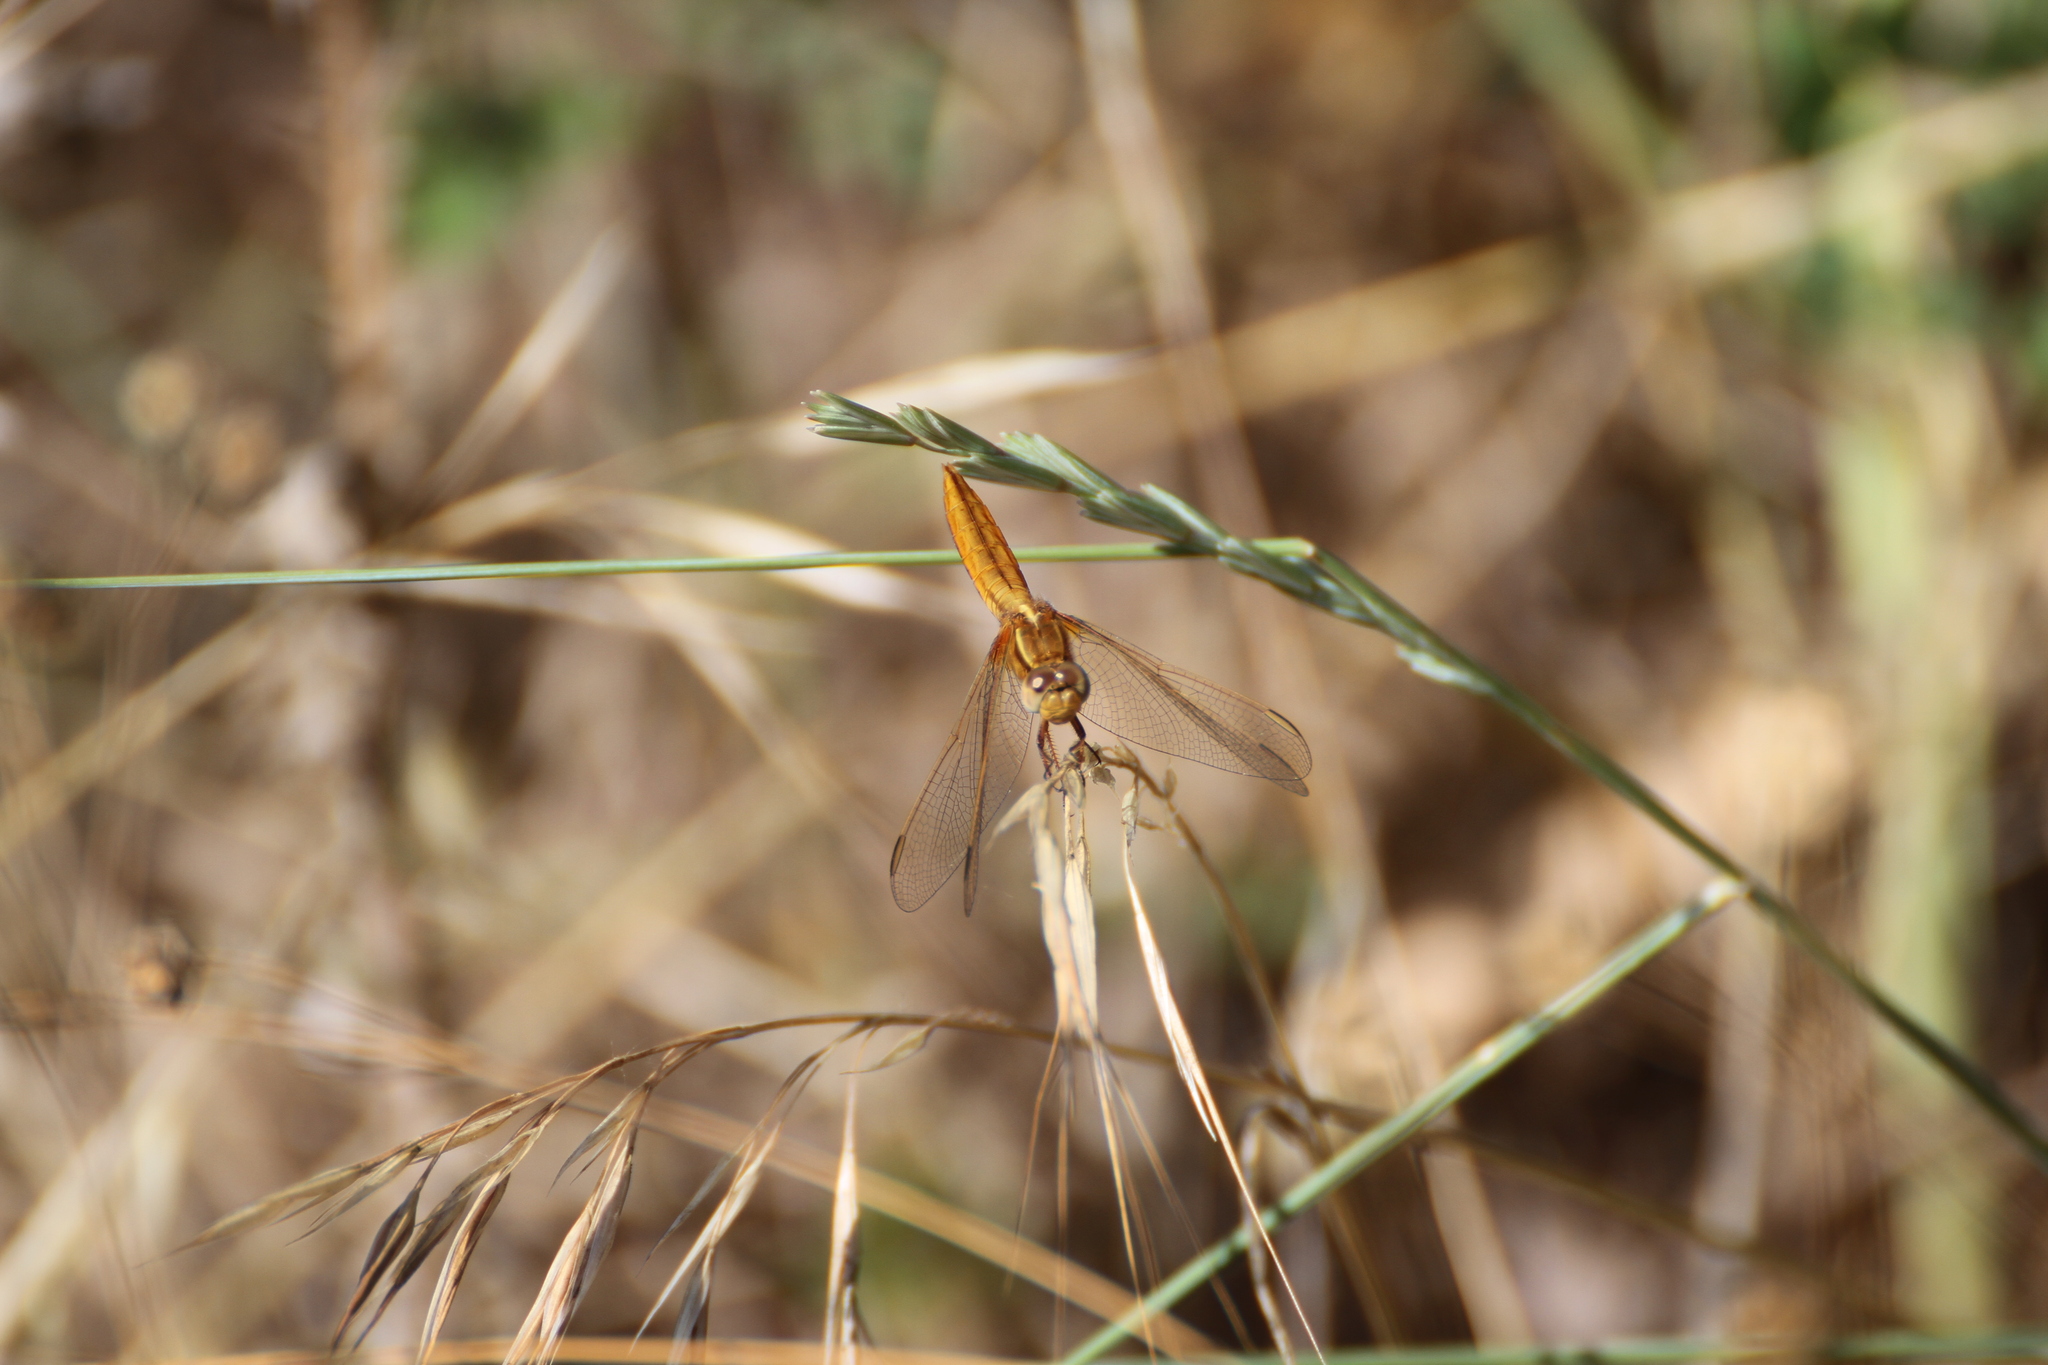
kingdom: Animalia
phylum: Arthropoda
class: Insecta
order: Odonata
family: Libellulidae
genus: Crocothemis
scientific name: Crocothemis erythraea
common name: Scarlet dragonfly
